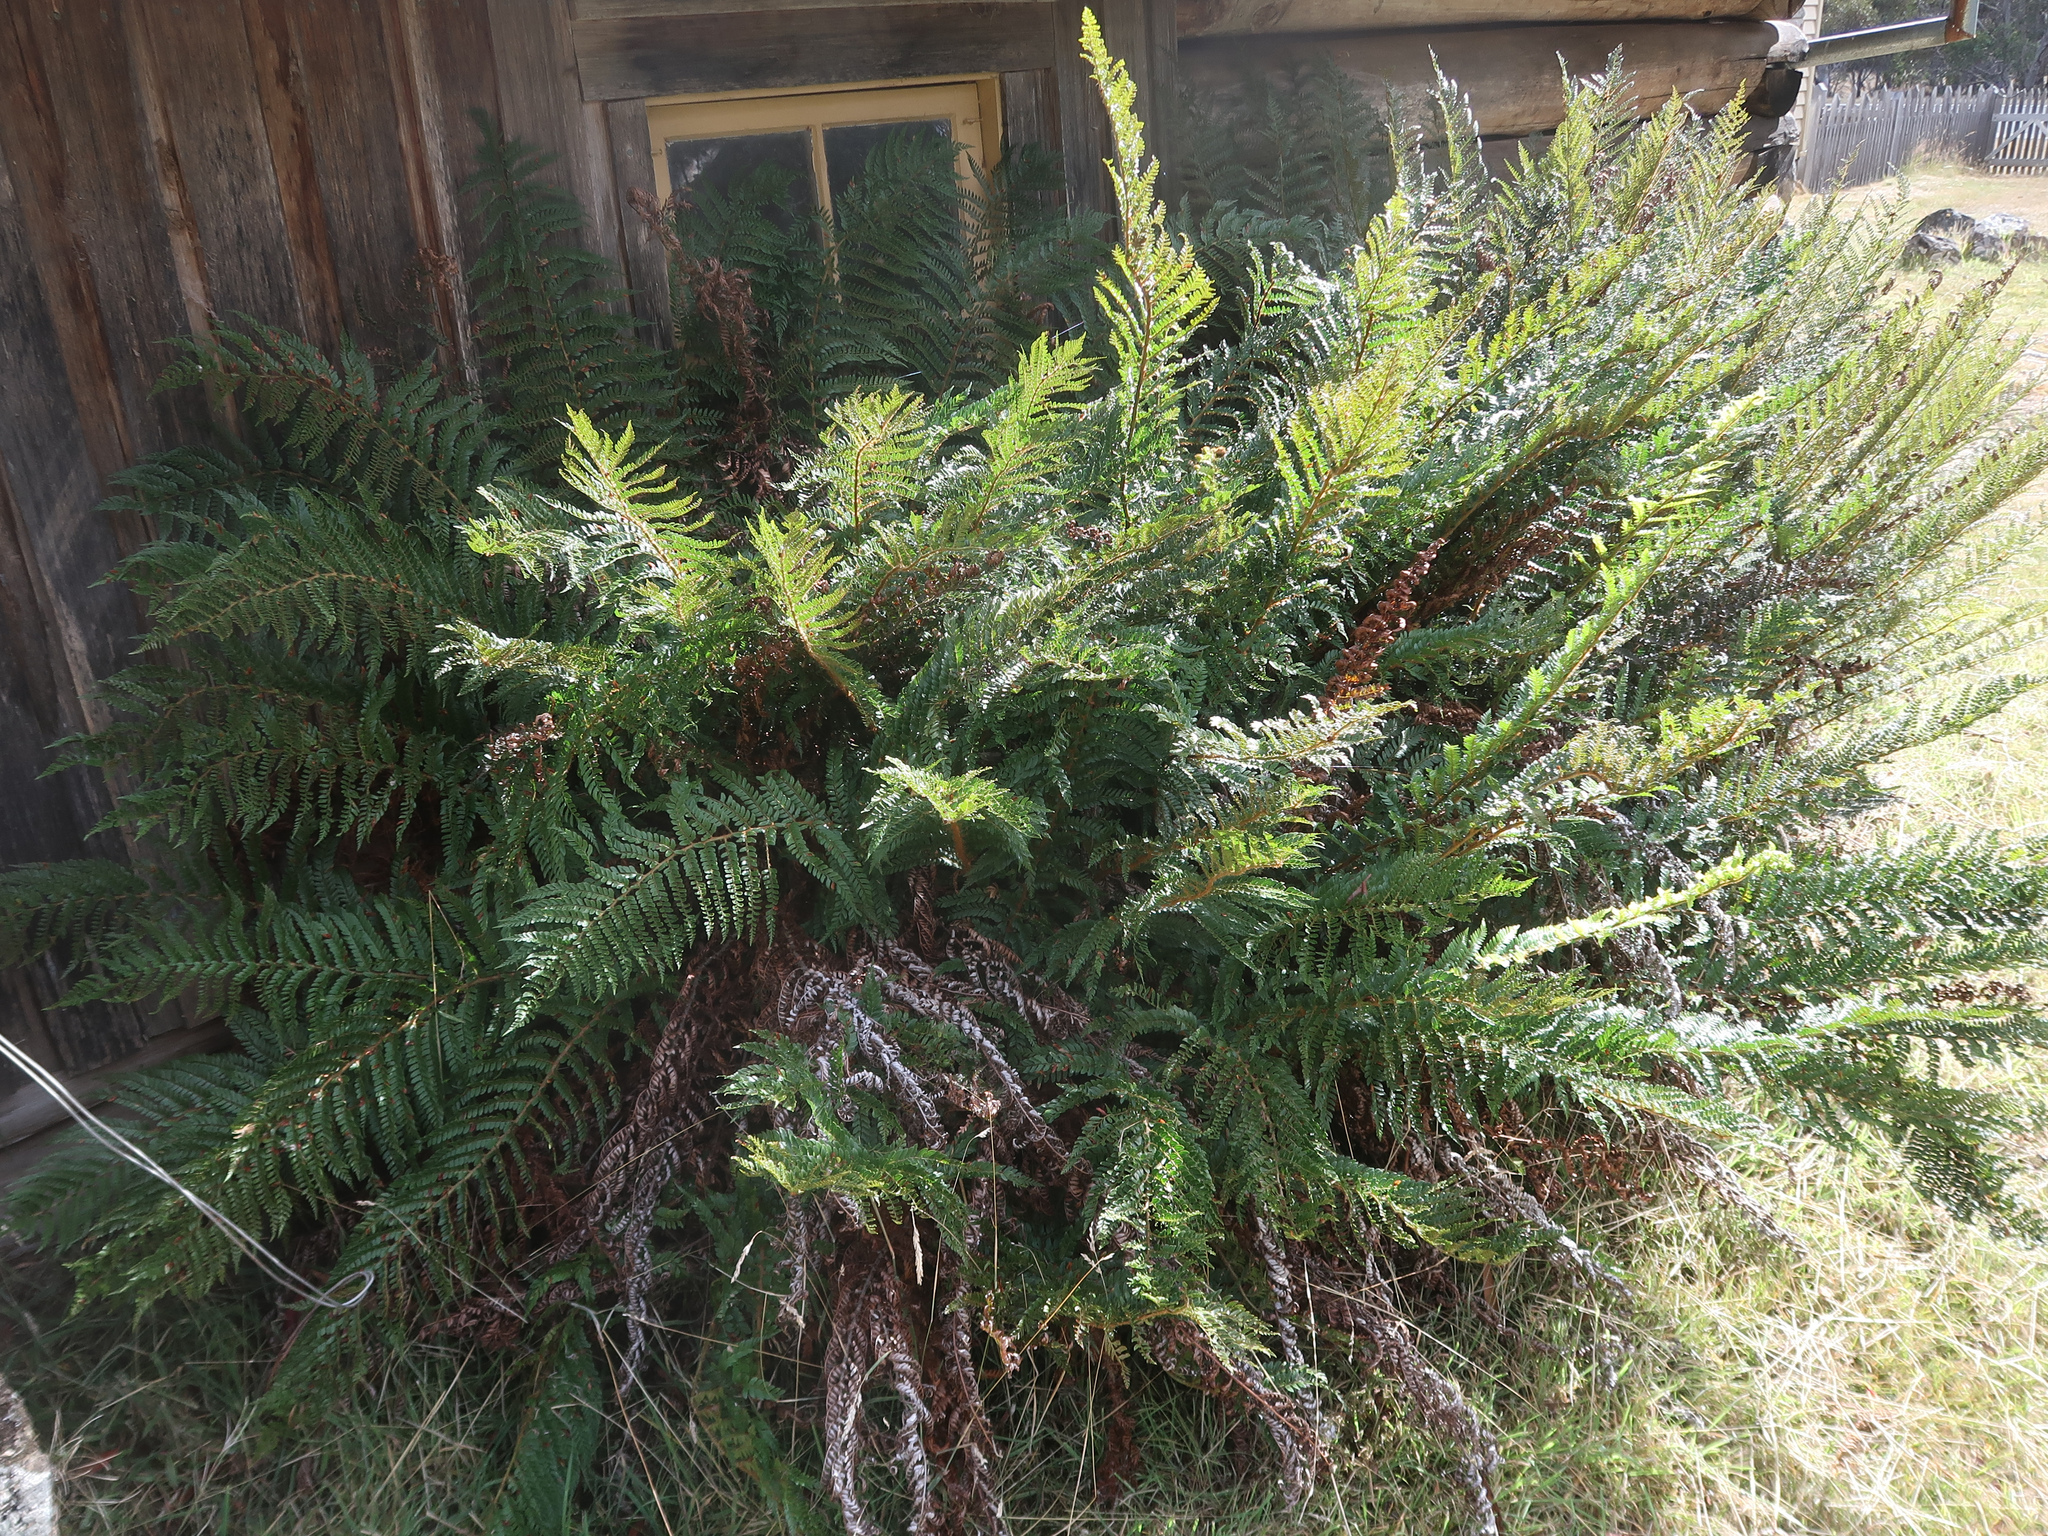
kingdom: Plantae
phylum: Tracheophyta
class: Polypodiopsida
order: Polypodiales
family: Dryopteridaceae
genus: Polystichum
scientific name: Polystichum proliferum
